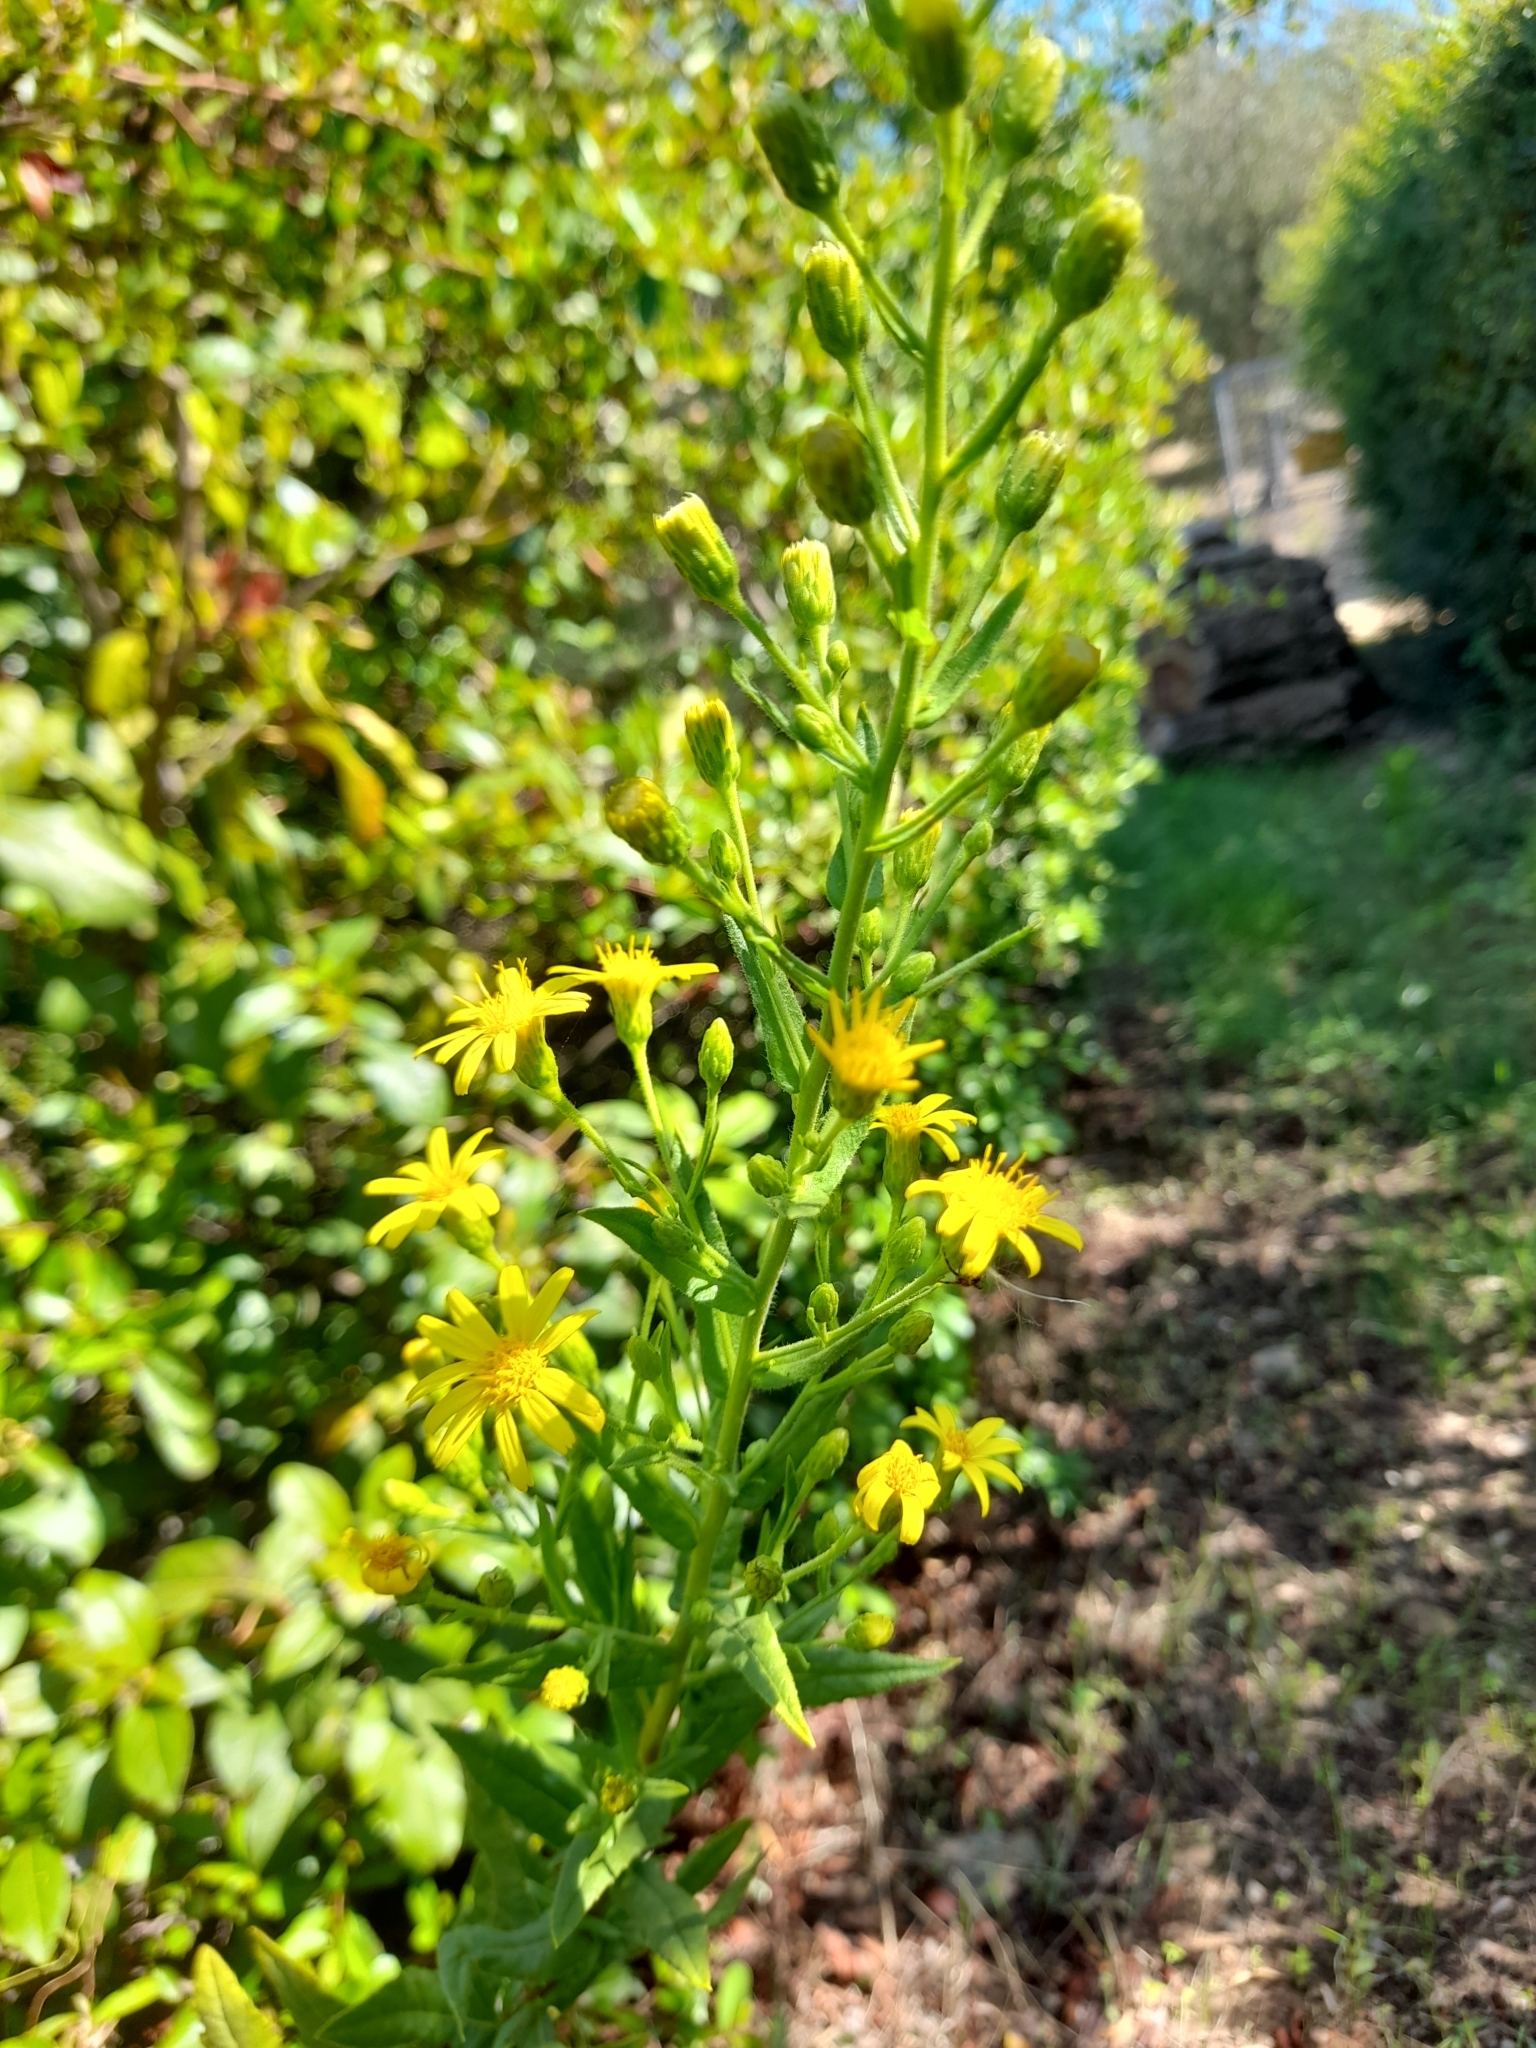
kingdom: Plantae
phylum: Tracheophyta
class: Magnoliopsida
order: Asterales
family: Asteraceae
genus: Dittrichia
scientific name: Dittrichia viscosa
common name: Woody fleabane
